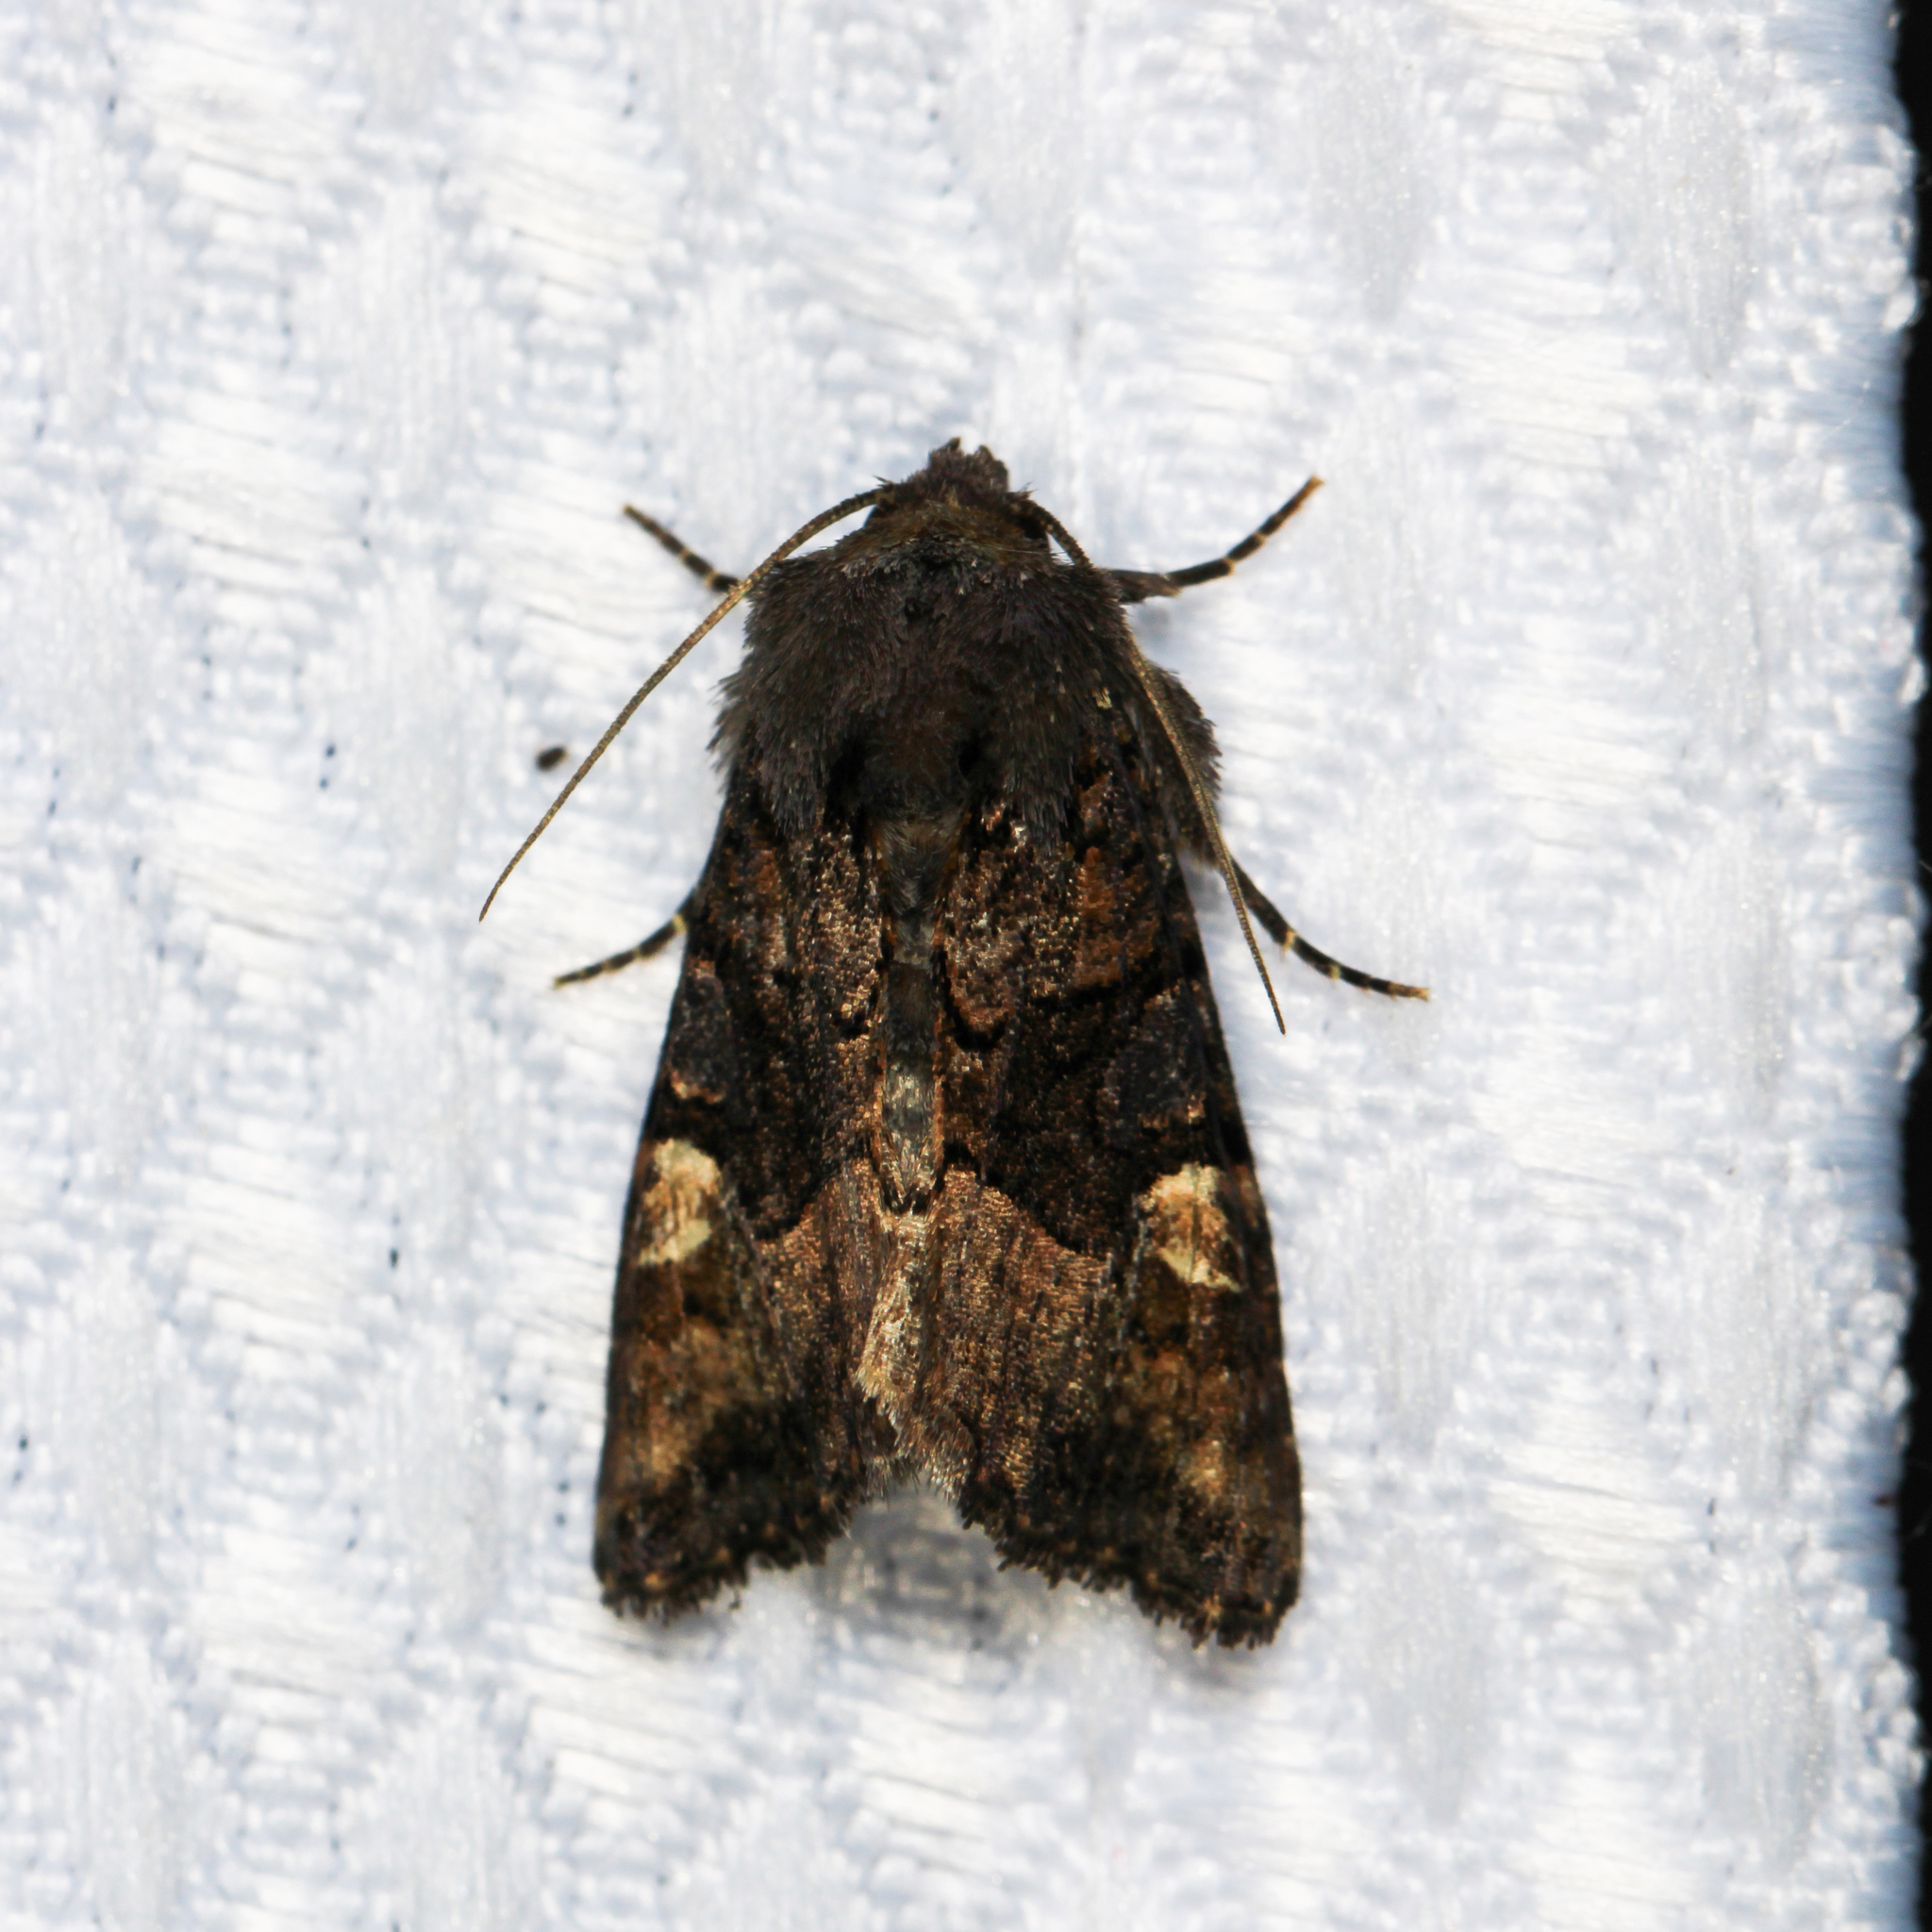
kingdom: Animalia
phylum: Arthropoda
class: Insecta
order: Lepidoptera
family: Noctuidae
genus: Euplexia
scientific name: Euplexia benesimilis
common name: American angle shades
